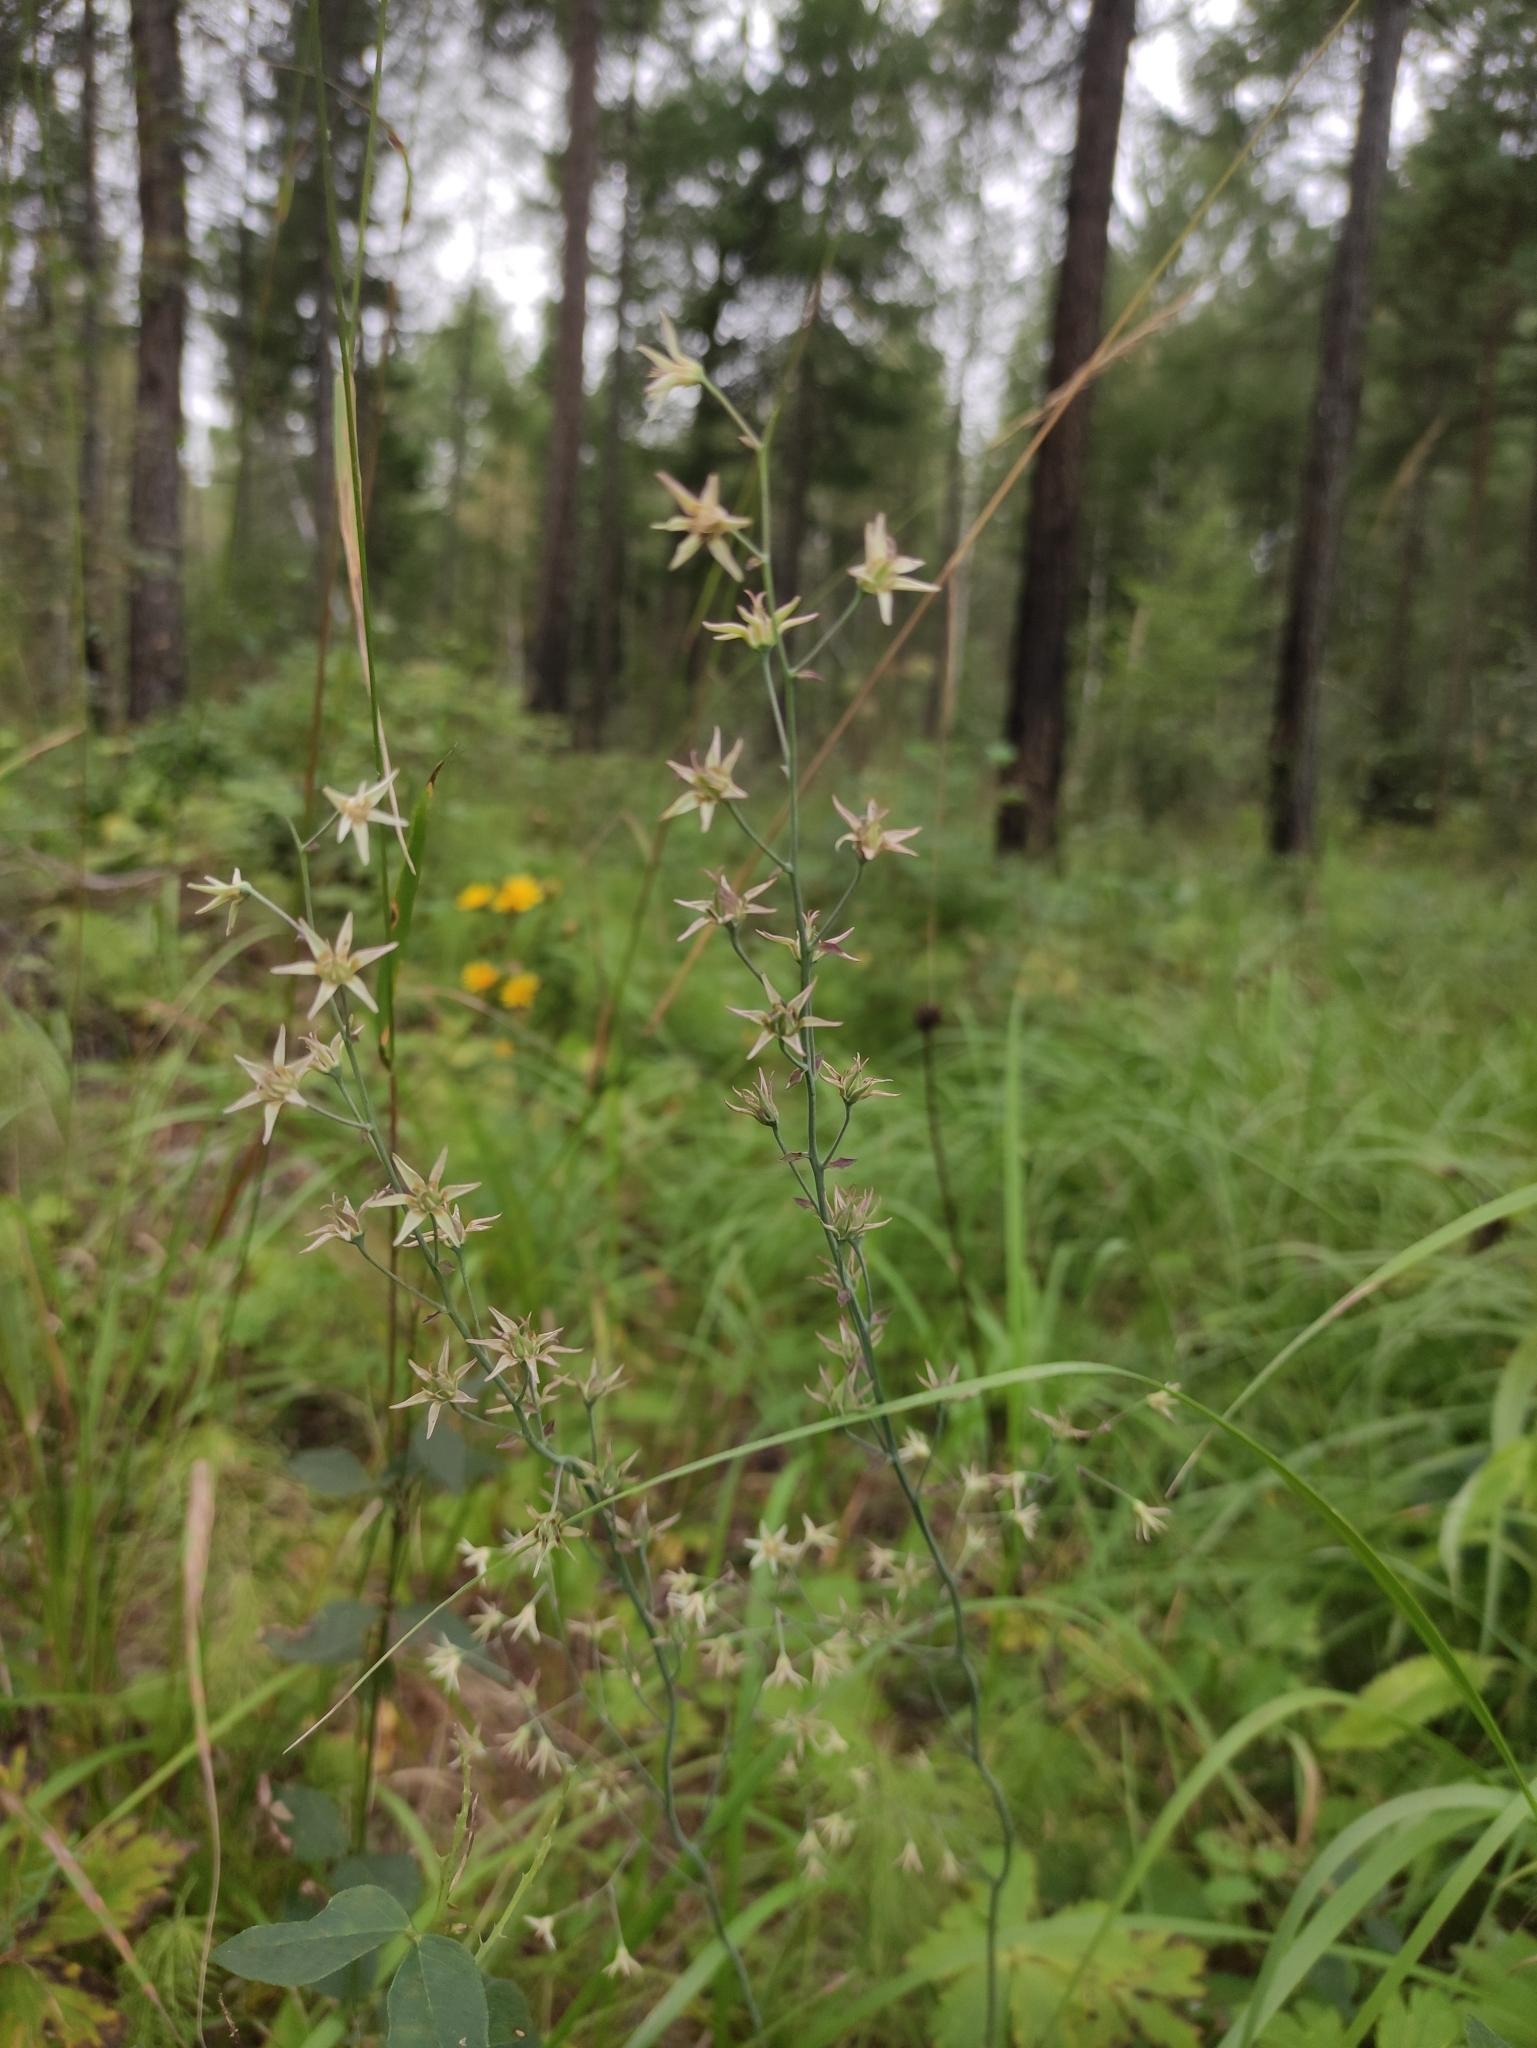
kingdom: Plantae
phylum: Tracheophyta
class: Liliopsida
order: Liliales
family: Melanthiaceae
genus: Anticlea
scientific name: Anticlea sibirica
